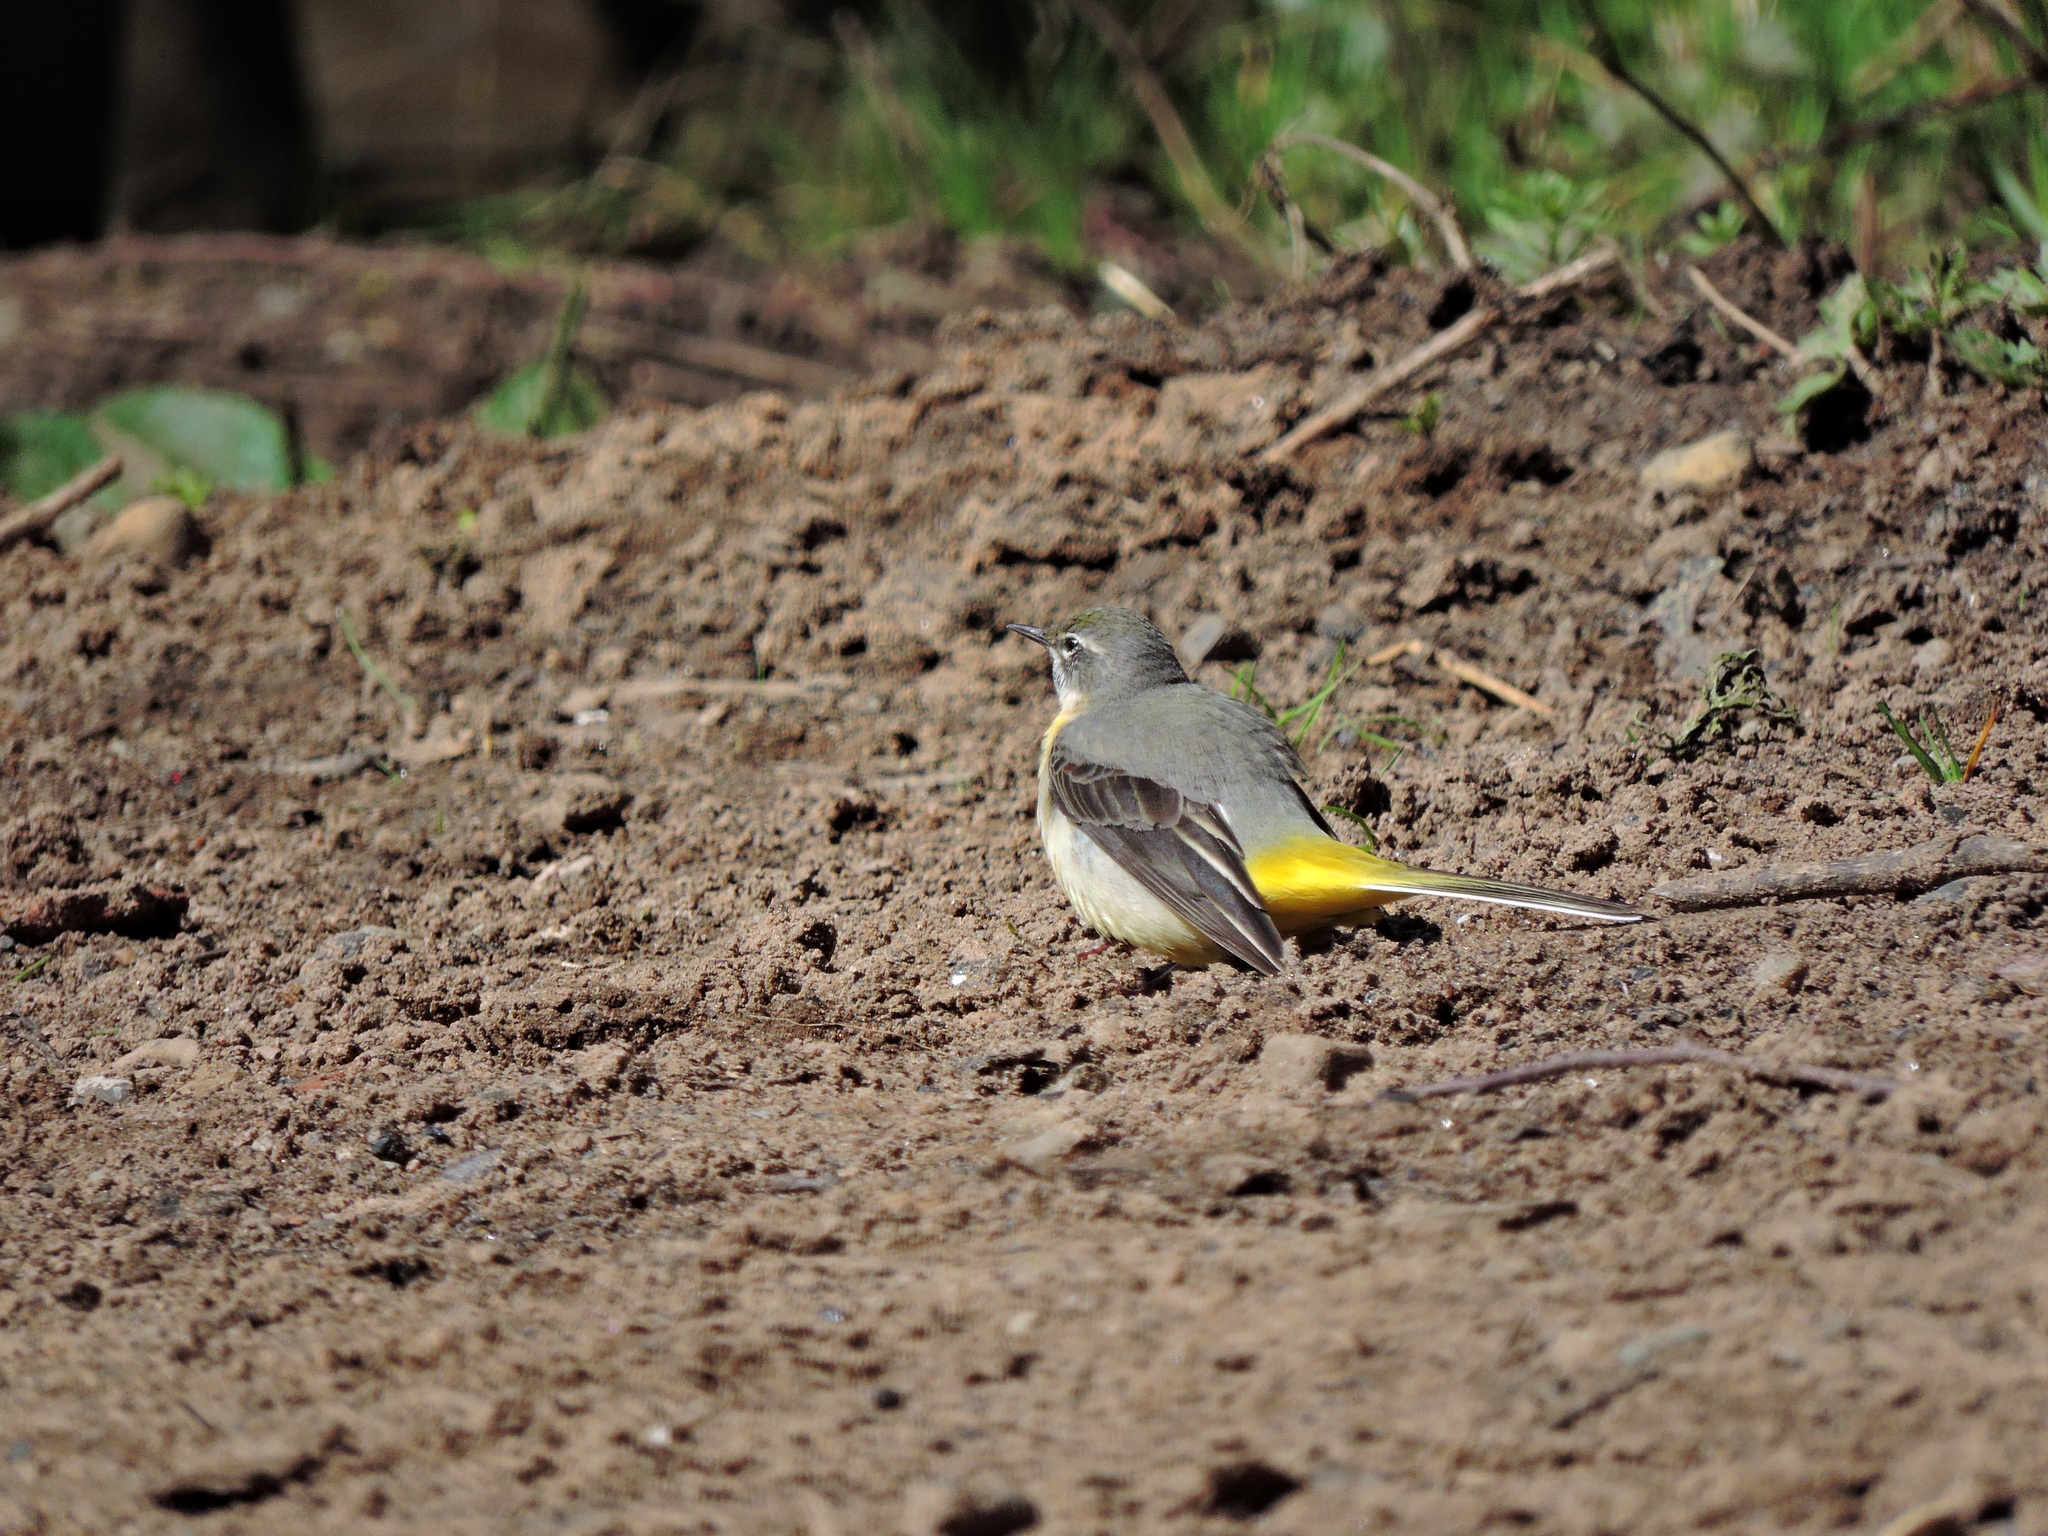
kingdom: Animalia
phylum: Chordata
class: Aves
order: Passeriformes
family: Motacillidae
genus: Motacilla
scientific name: Motacilla cinerea
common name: Grey wagtail
